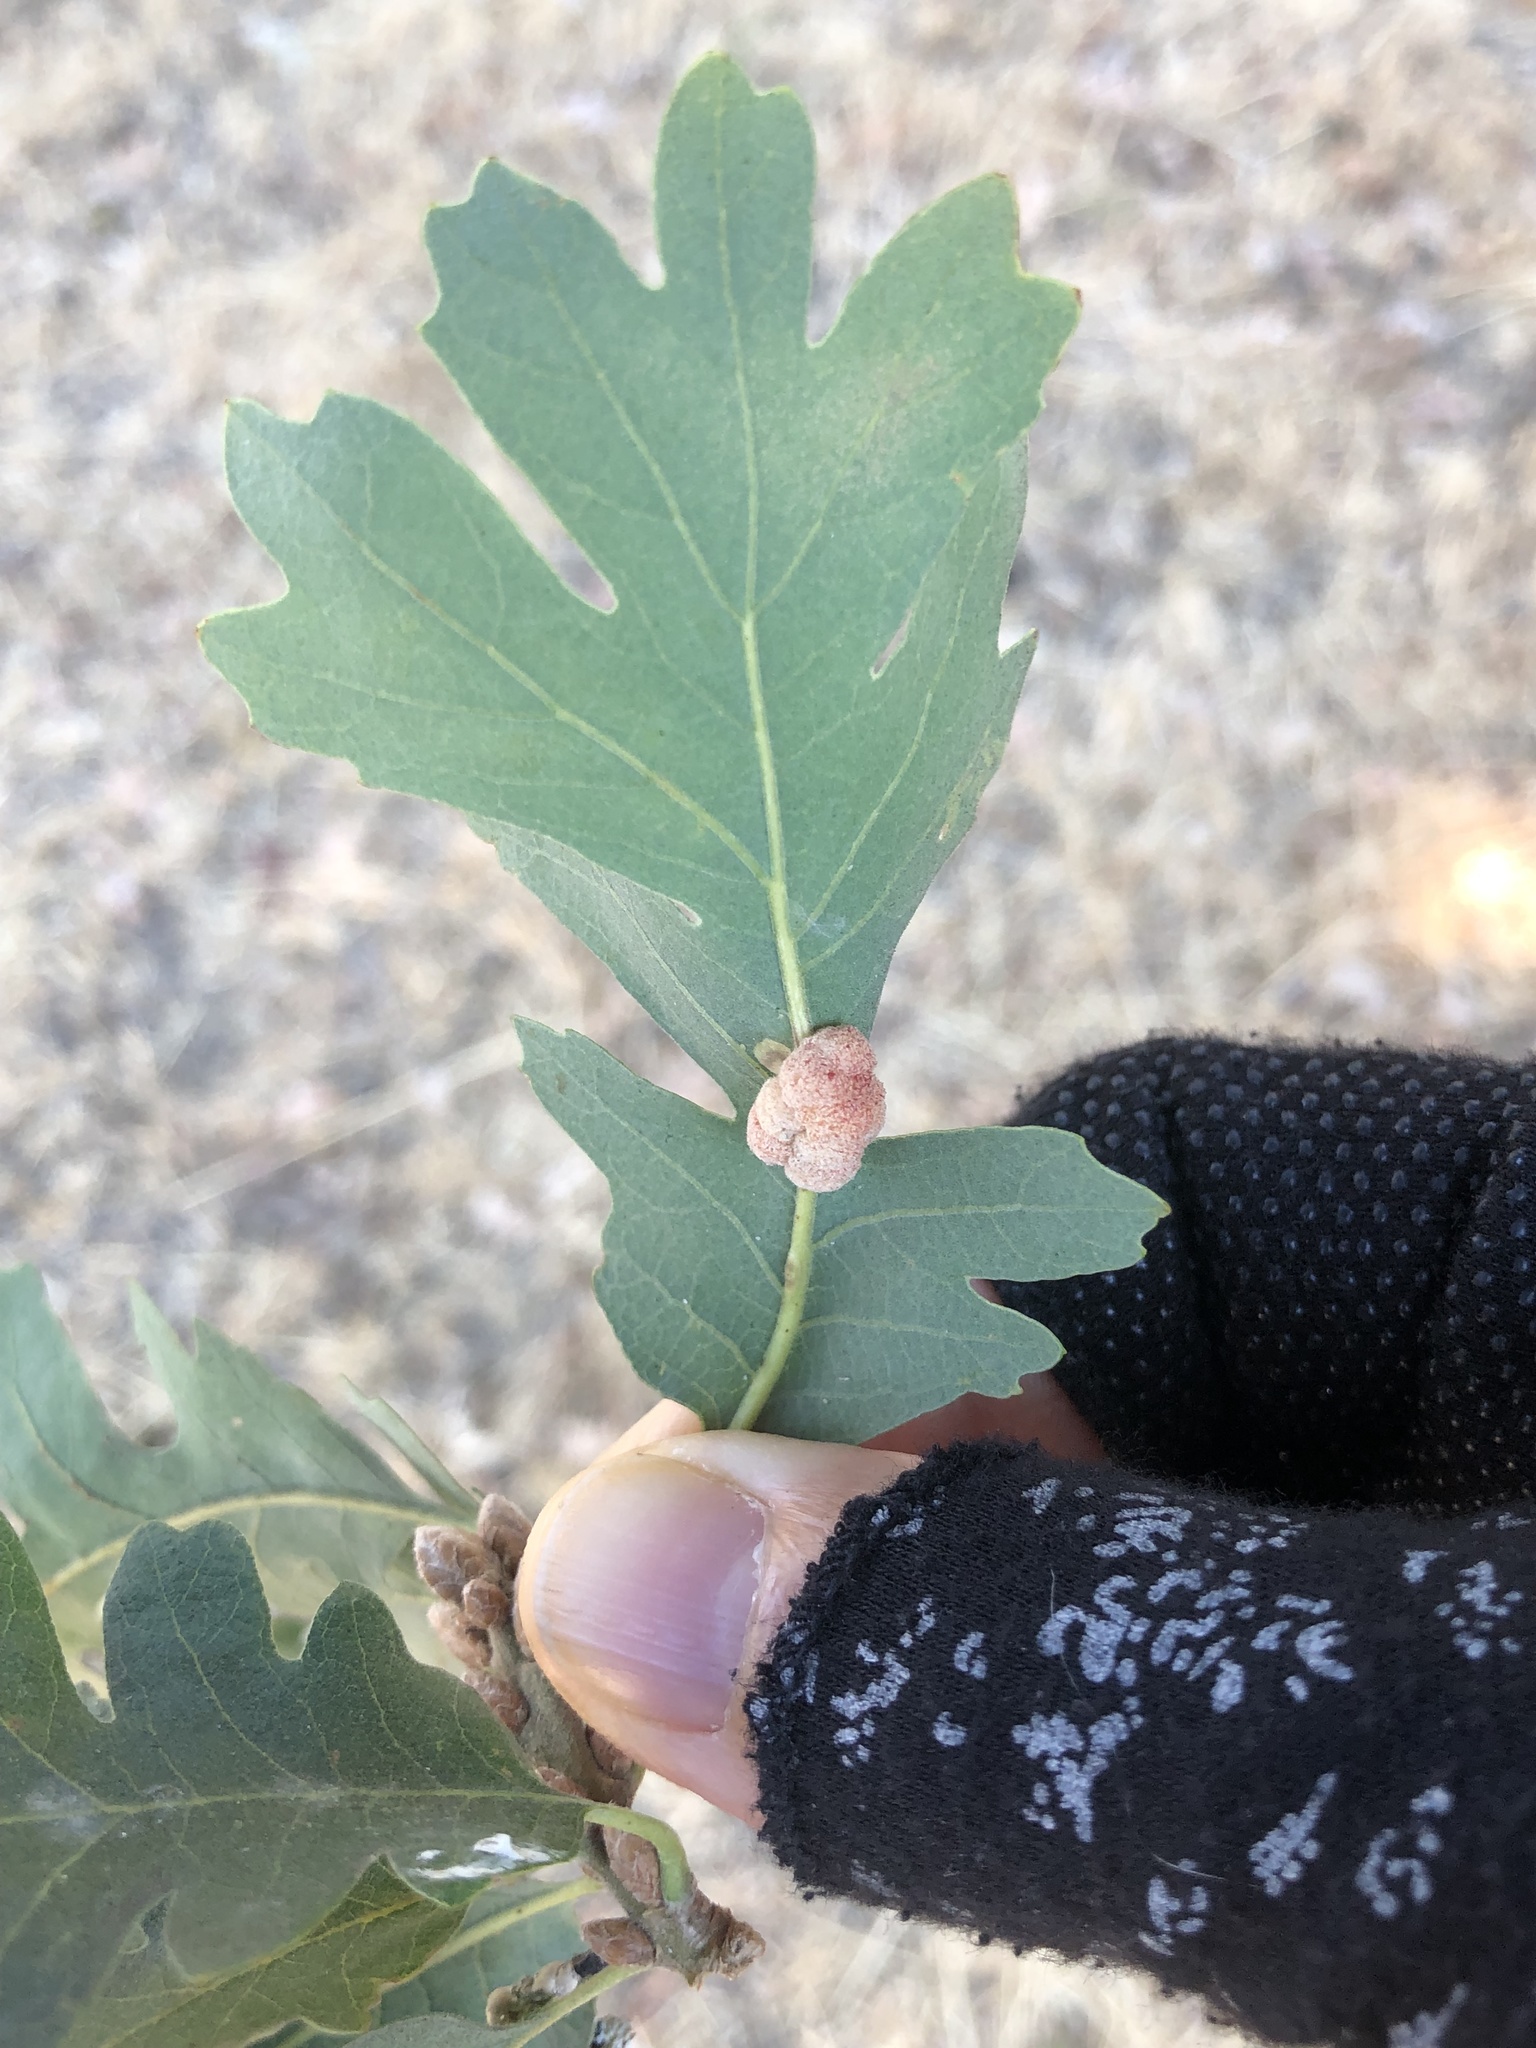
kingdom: Animalia
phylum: Arthropoda
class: Insecta
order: Hymenoptera
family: Cynipidae
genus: Andricus
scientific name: Andricus
